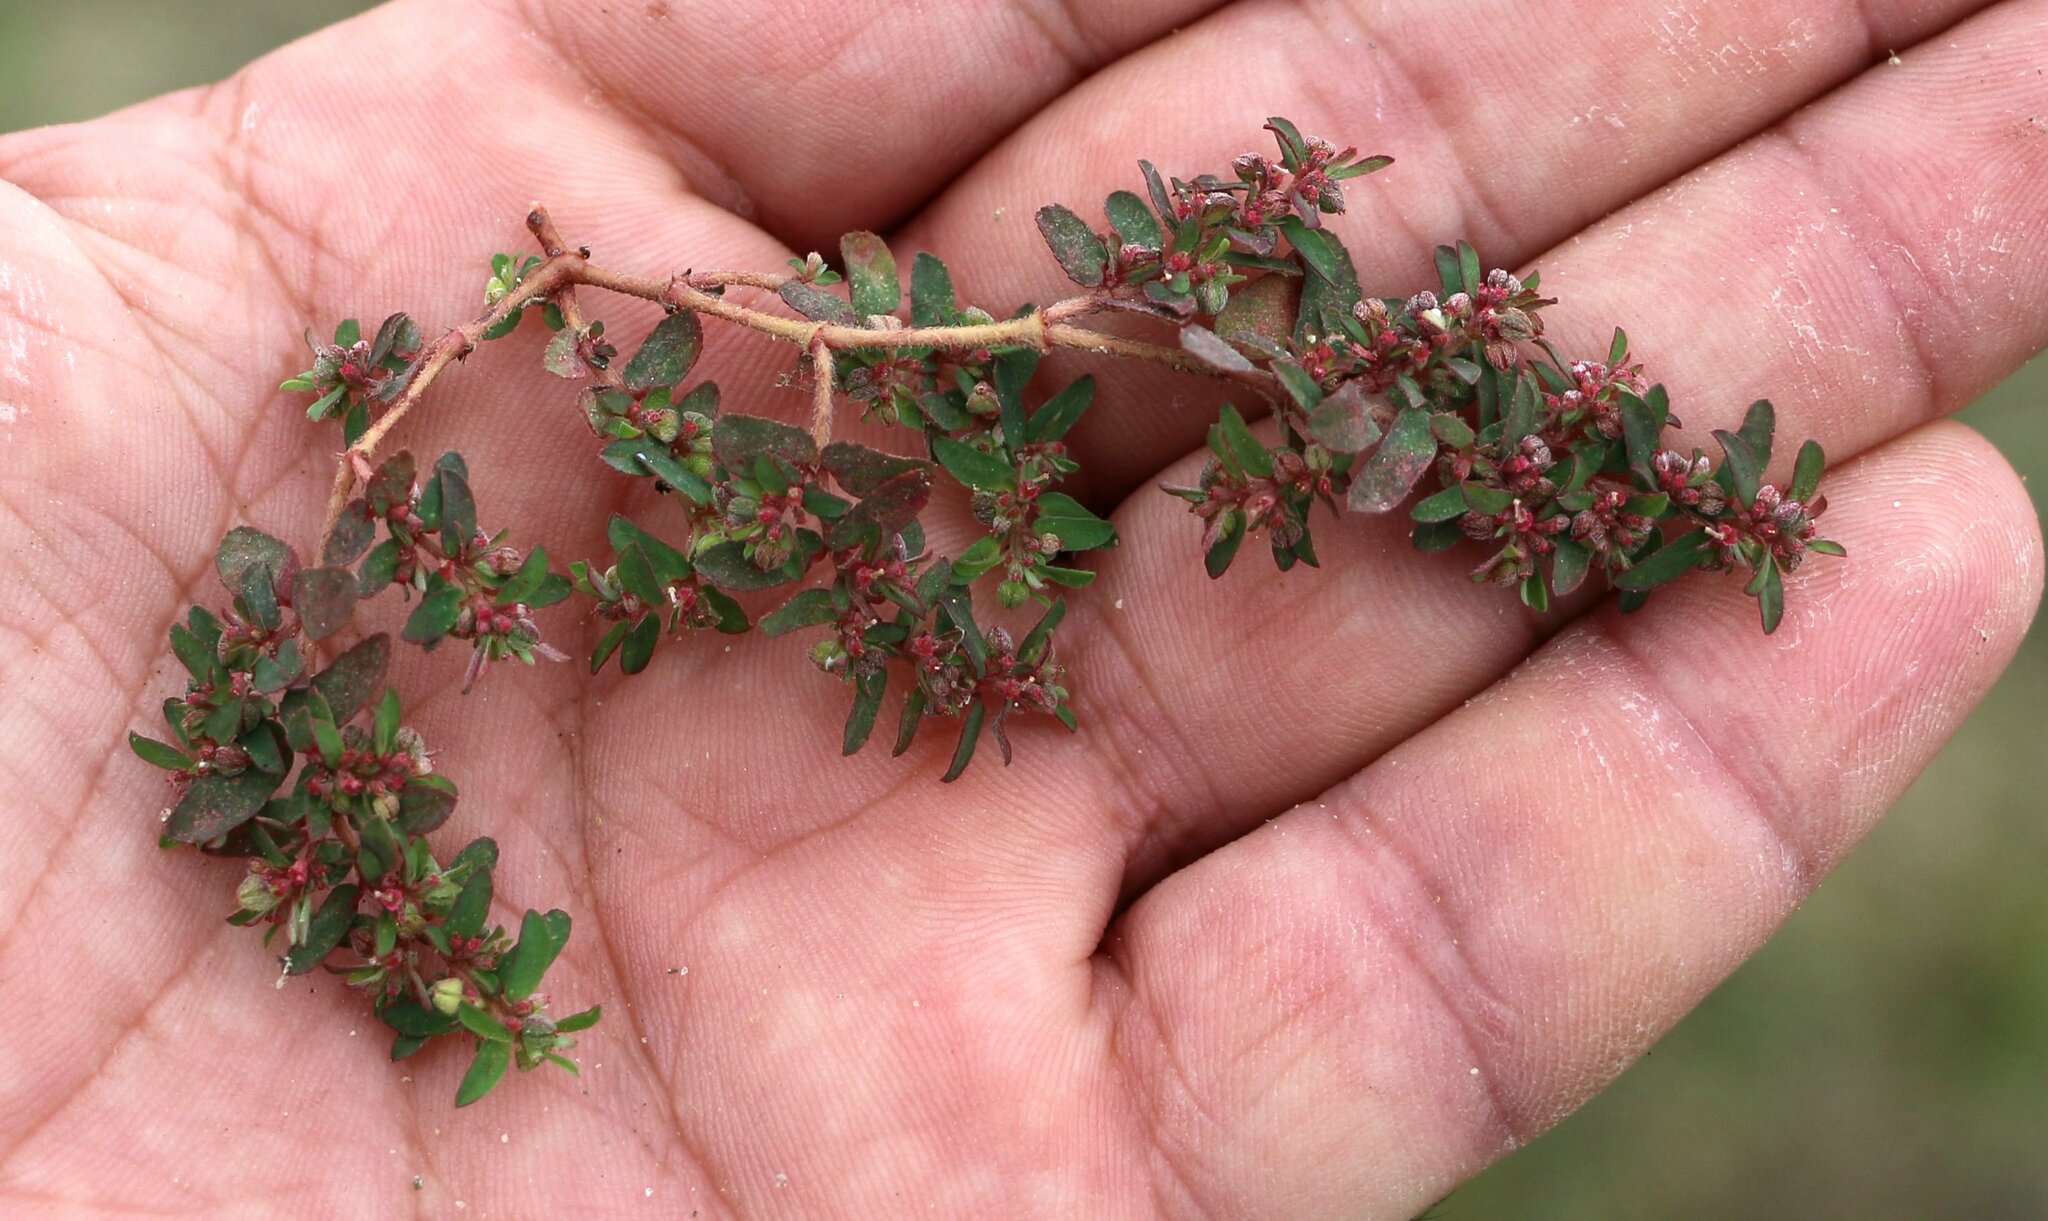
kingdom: Plantae
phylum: Tracheophyta
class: Magnoliopsida
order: Malpighiales
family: Euphorbiaceae
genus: Euphorbia
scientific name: Euphorbia maculata
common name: Spotted spurge
